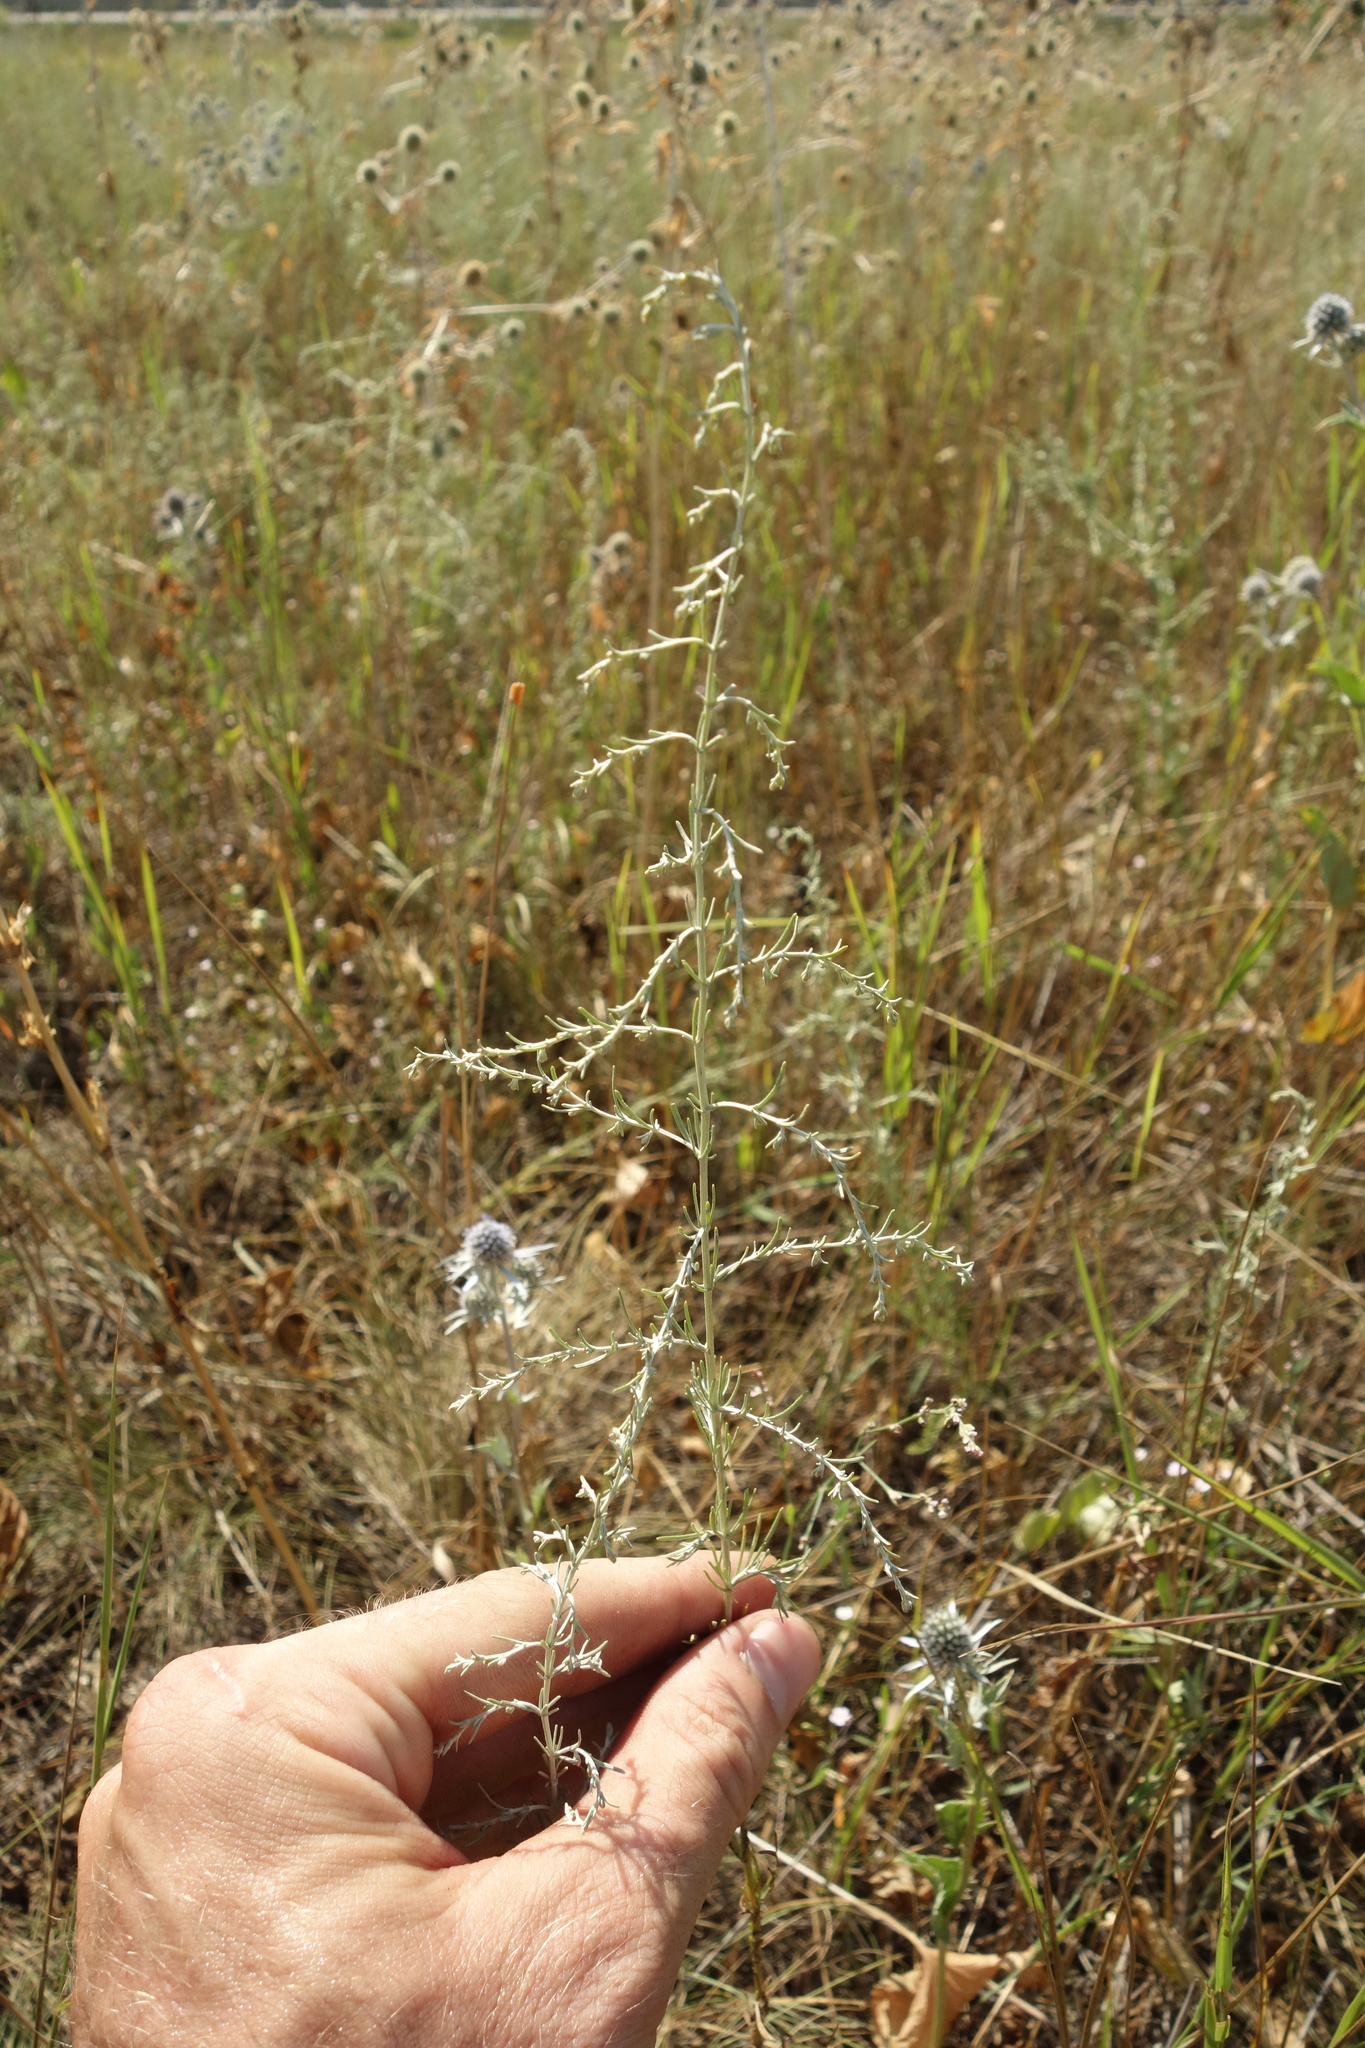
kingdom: Plantae
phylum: Tracheophyta
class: Magnoliopsida
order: Asterales
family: Asteraceae
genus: Artemisia
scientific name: Artemisia santonicum
